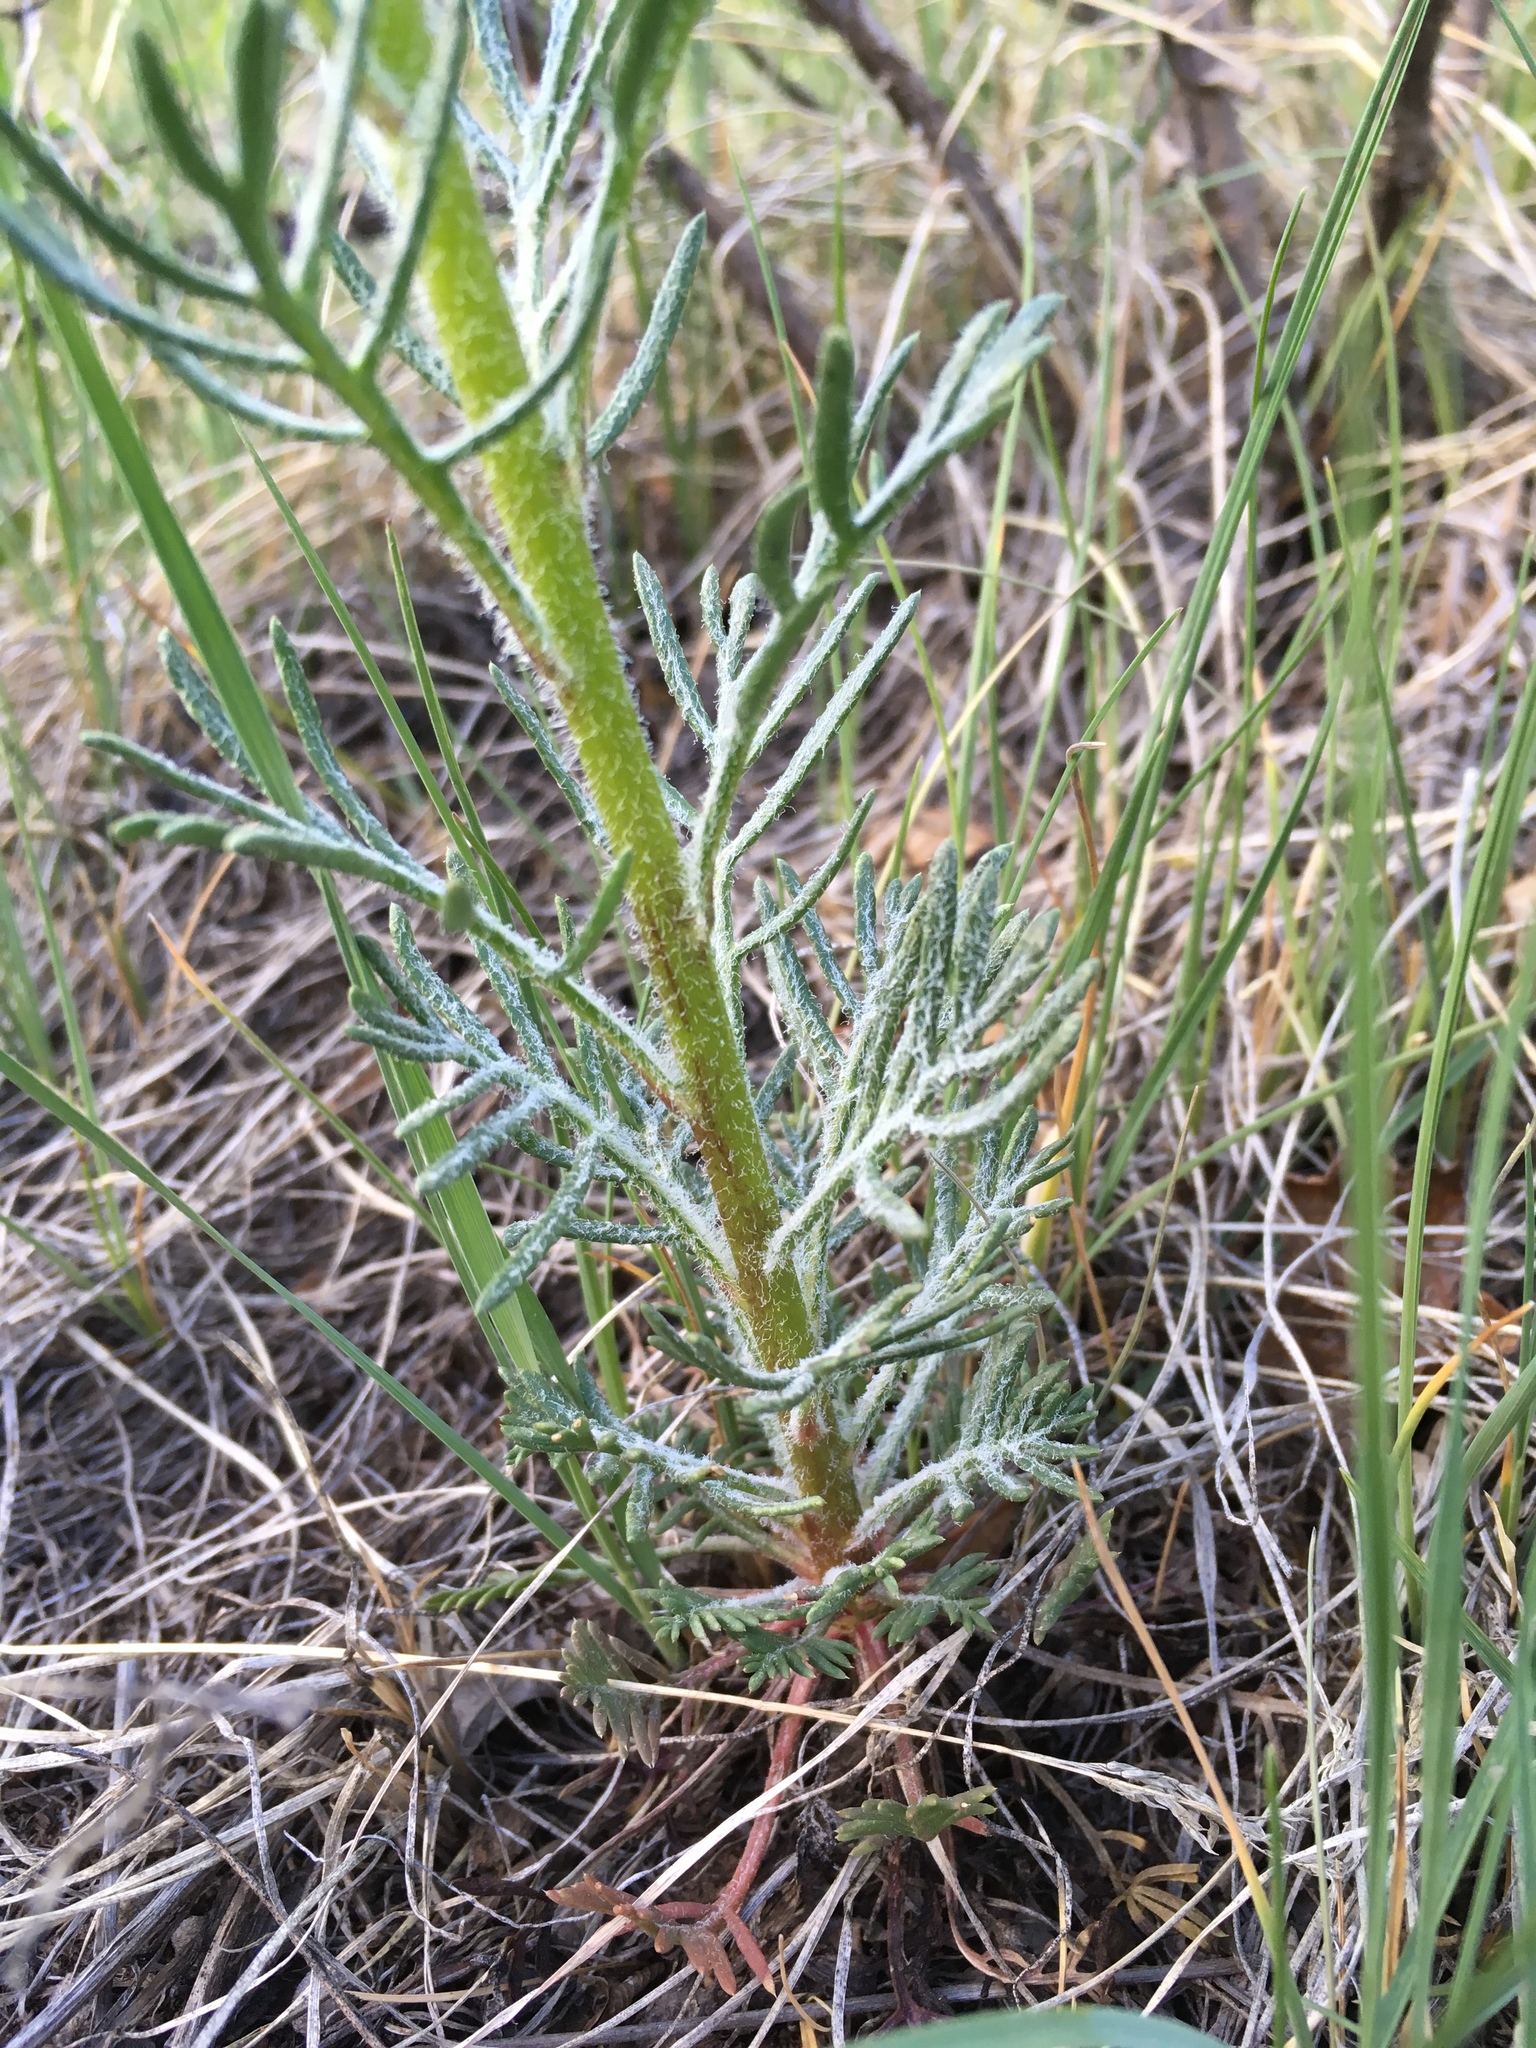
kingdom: Plantae
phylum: Tracheophyta
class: Magnoliopsida
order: Ericales
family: Polemoniaceae
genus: Ipomopsis
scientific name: Ipomopsis aggregata
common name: Scarlet gilia
